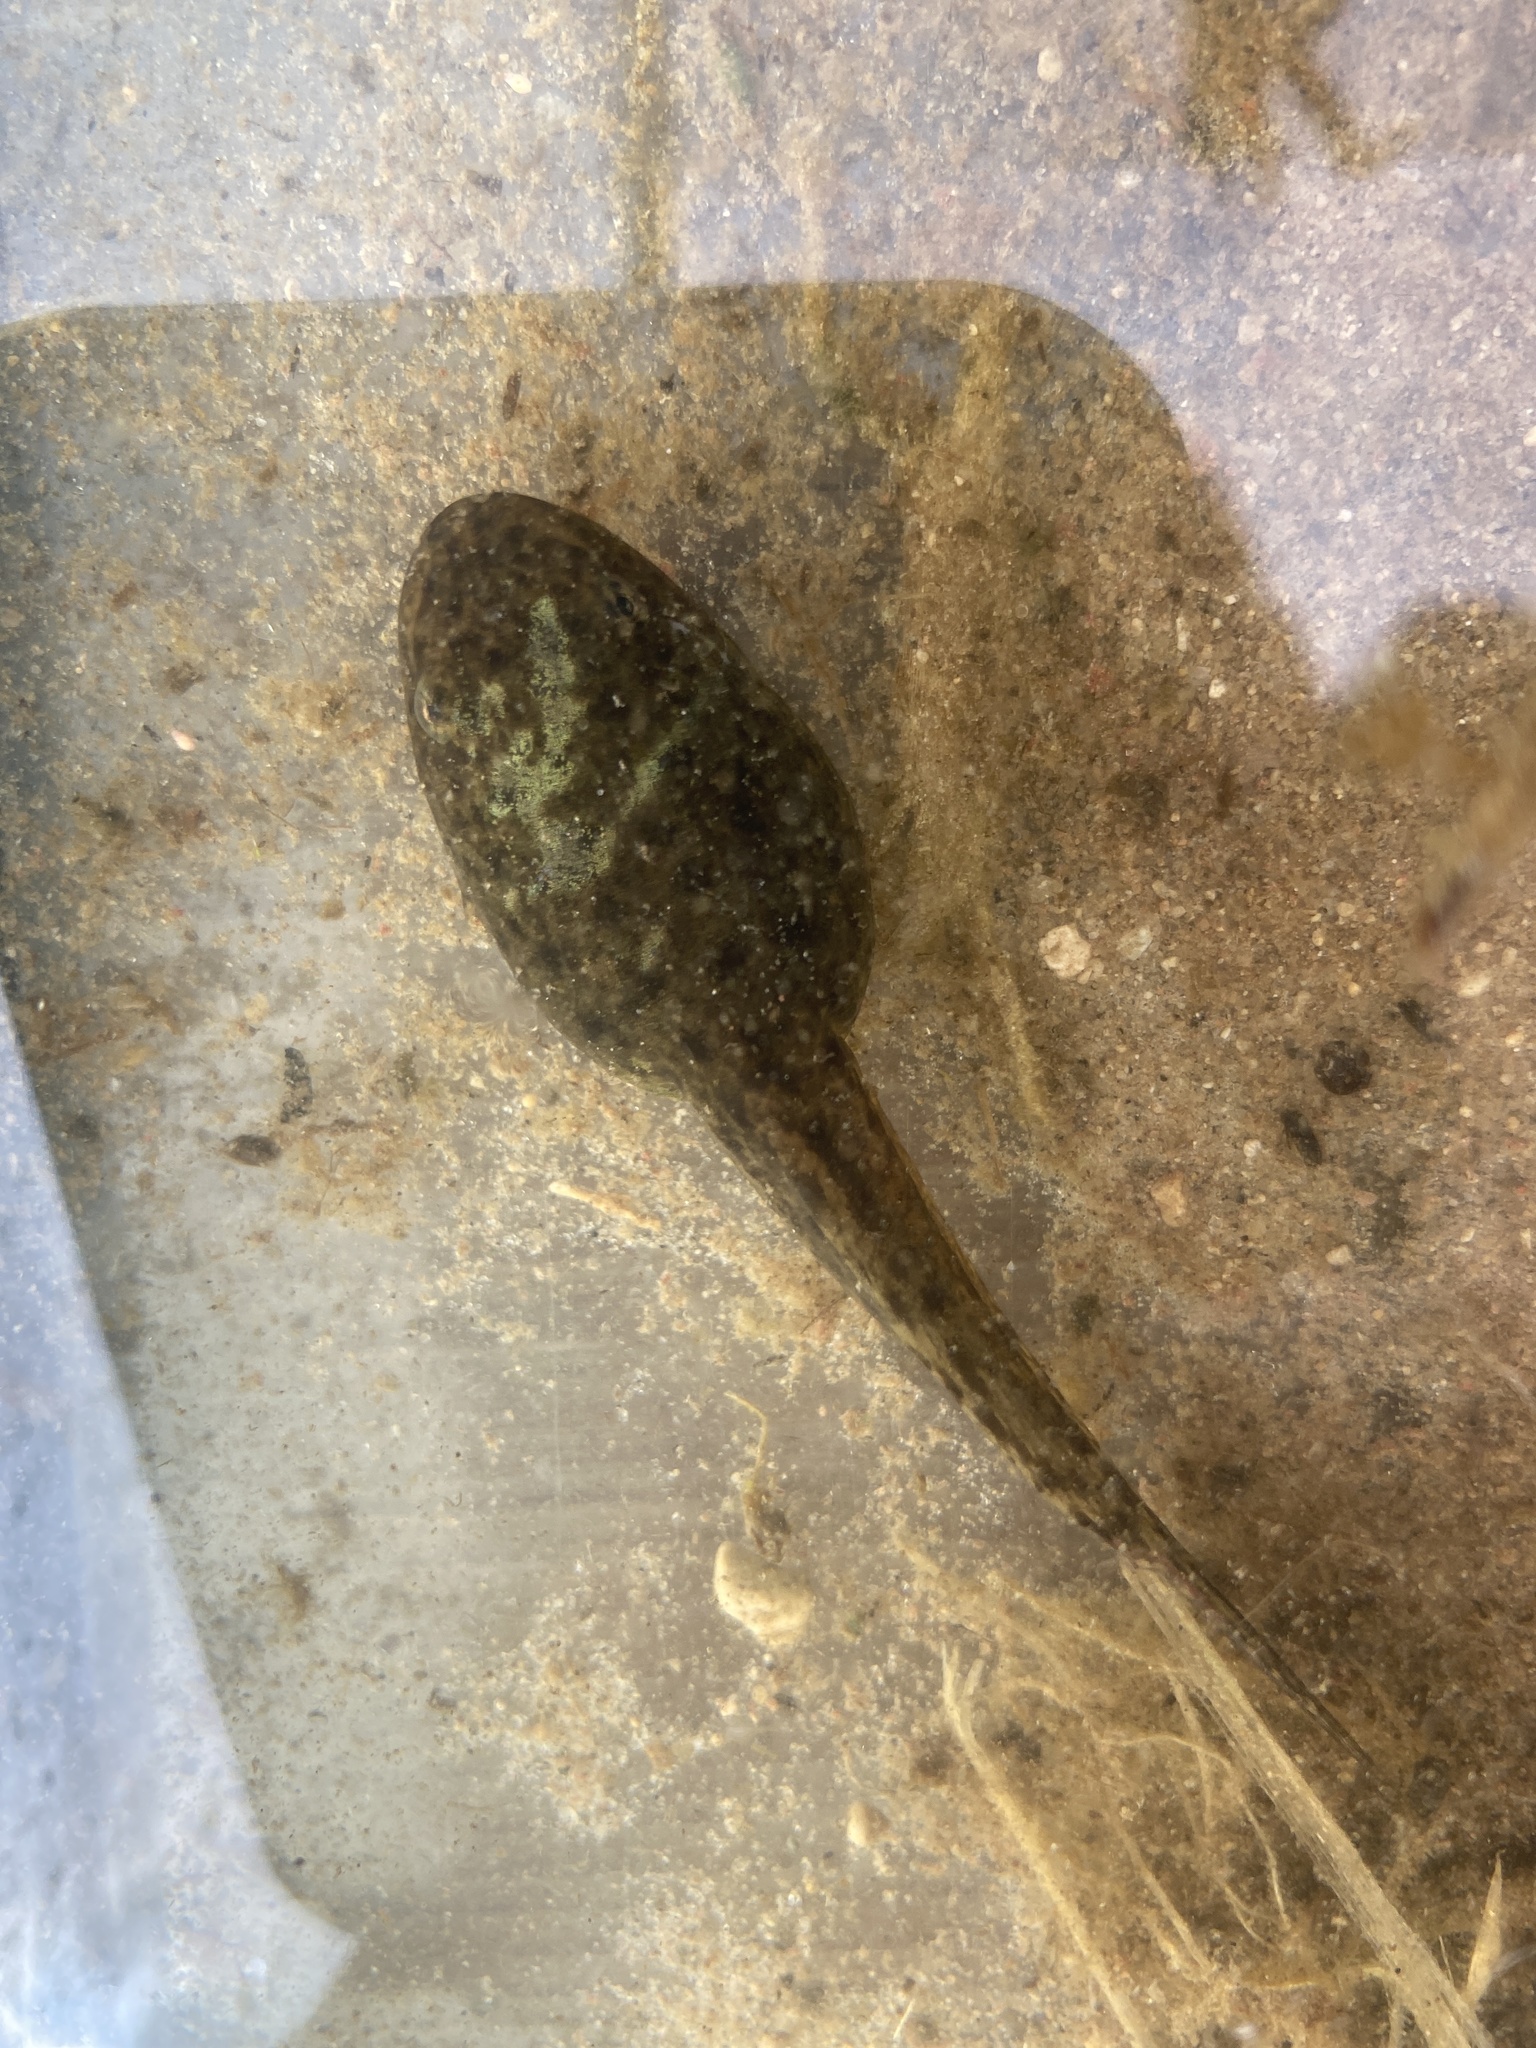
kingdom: Animalia
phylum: Chordata
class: Amphibia
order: Anura
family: Ranidae
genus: Lithobates
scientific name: Lithobates clamitans
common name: Green frog
